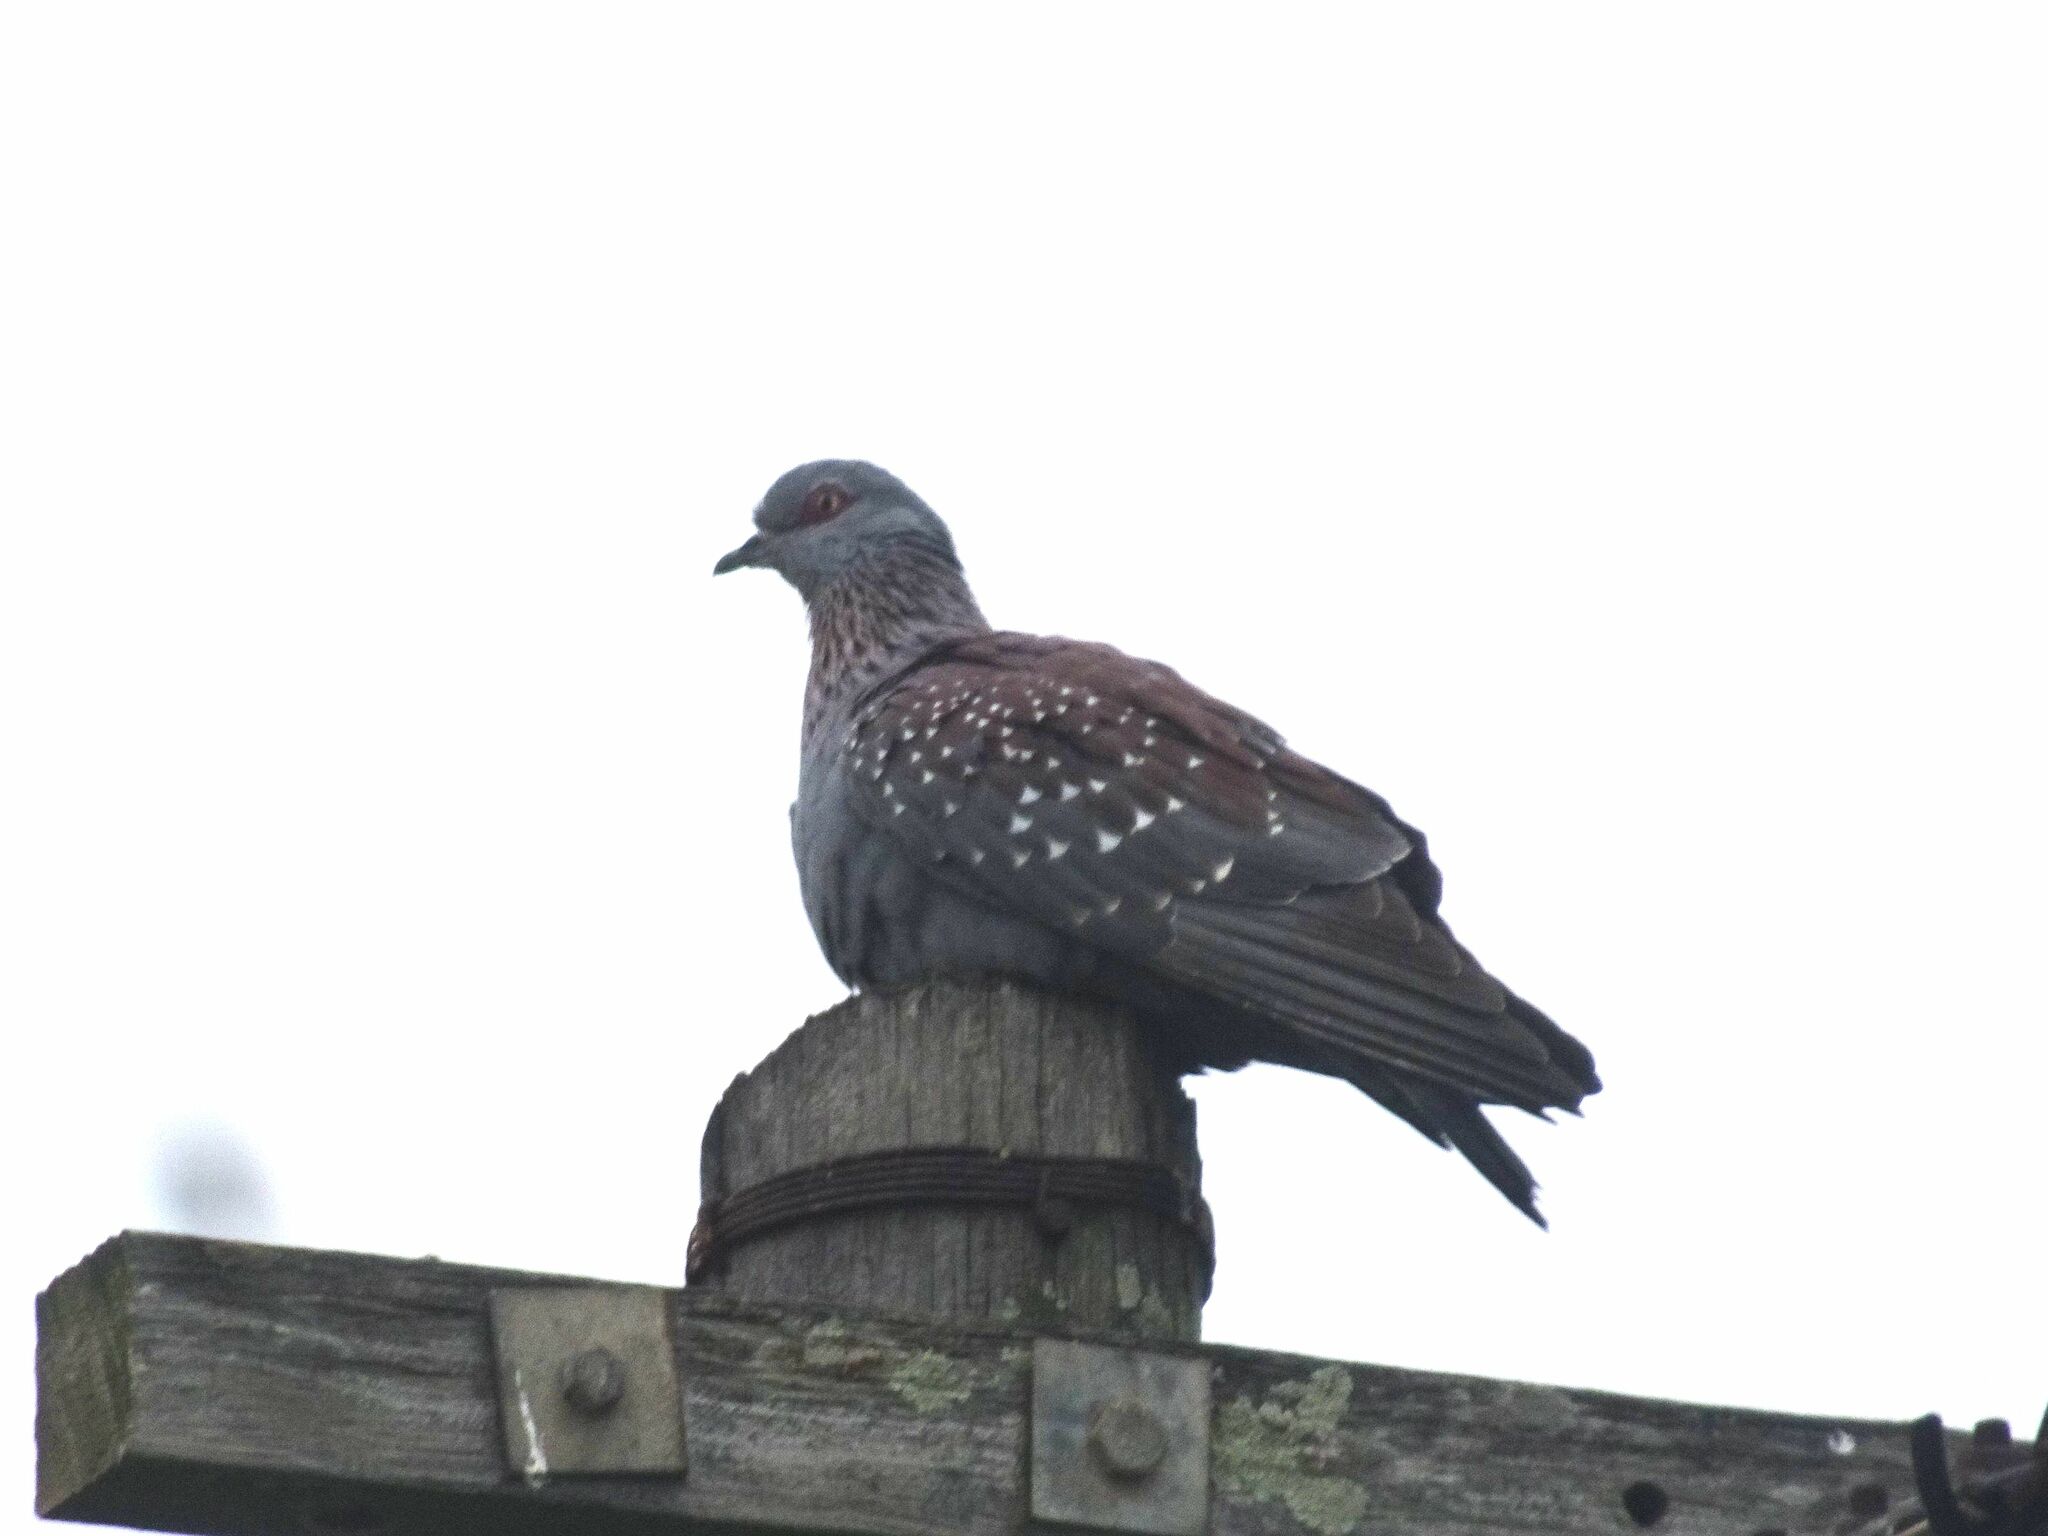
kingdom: Animalia
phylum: Chordata
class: Aves
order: Columbiformes
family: Columbidae
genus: Columba
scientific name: Columba guinea
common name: Speckled pigeon
